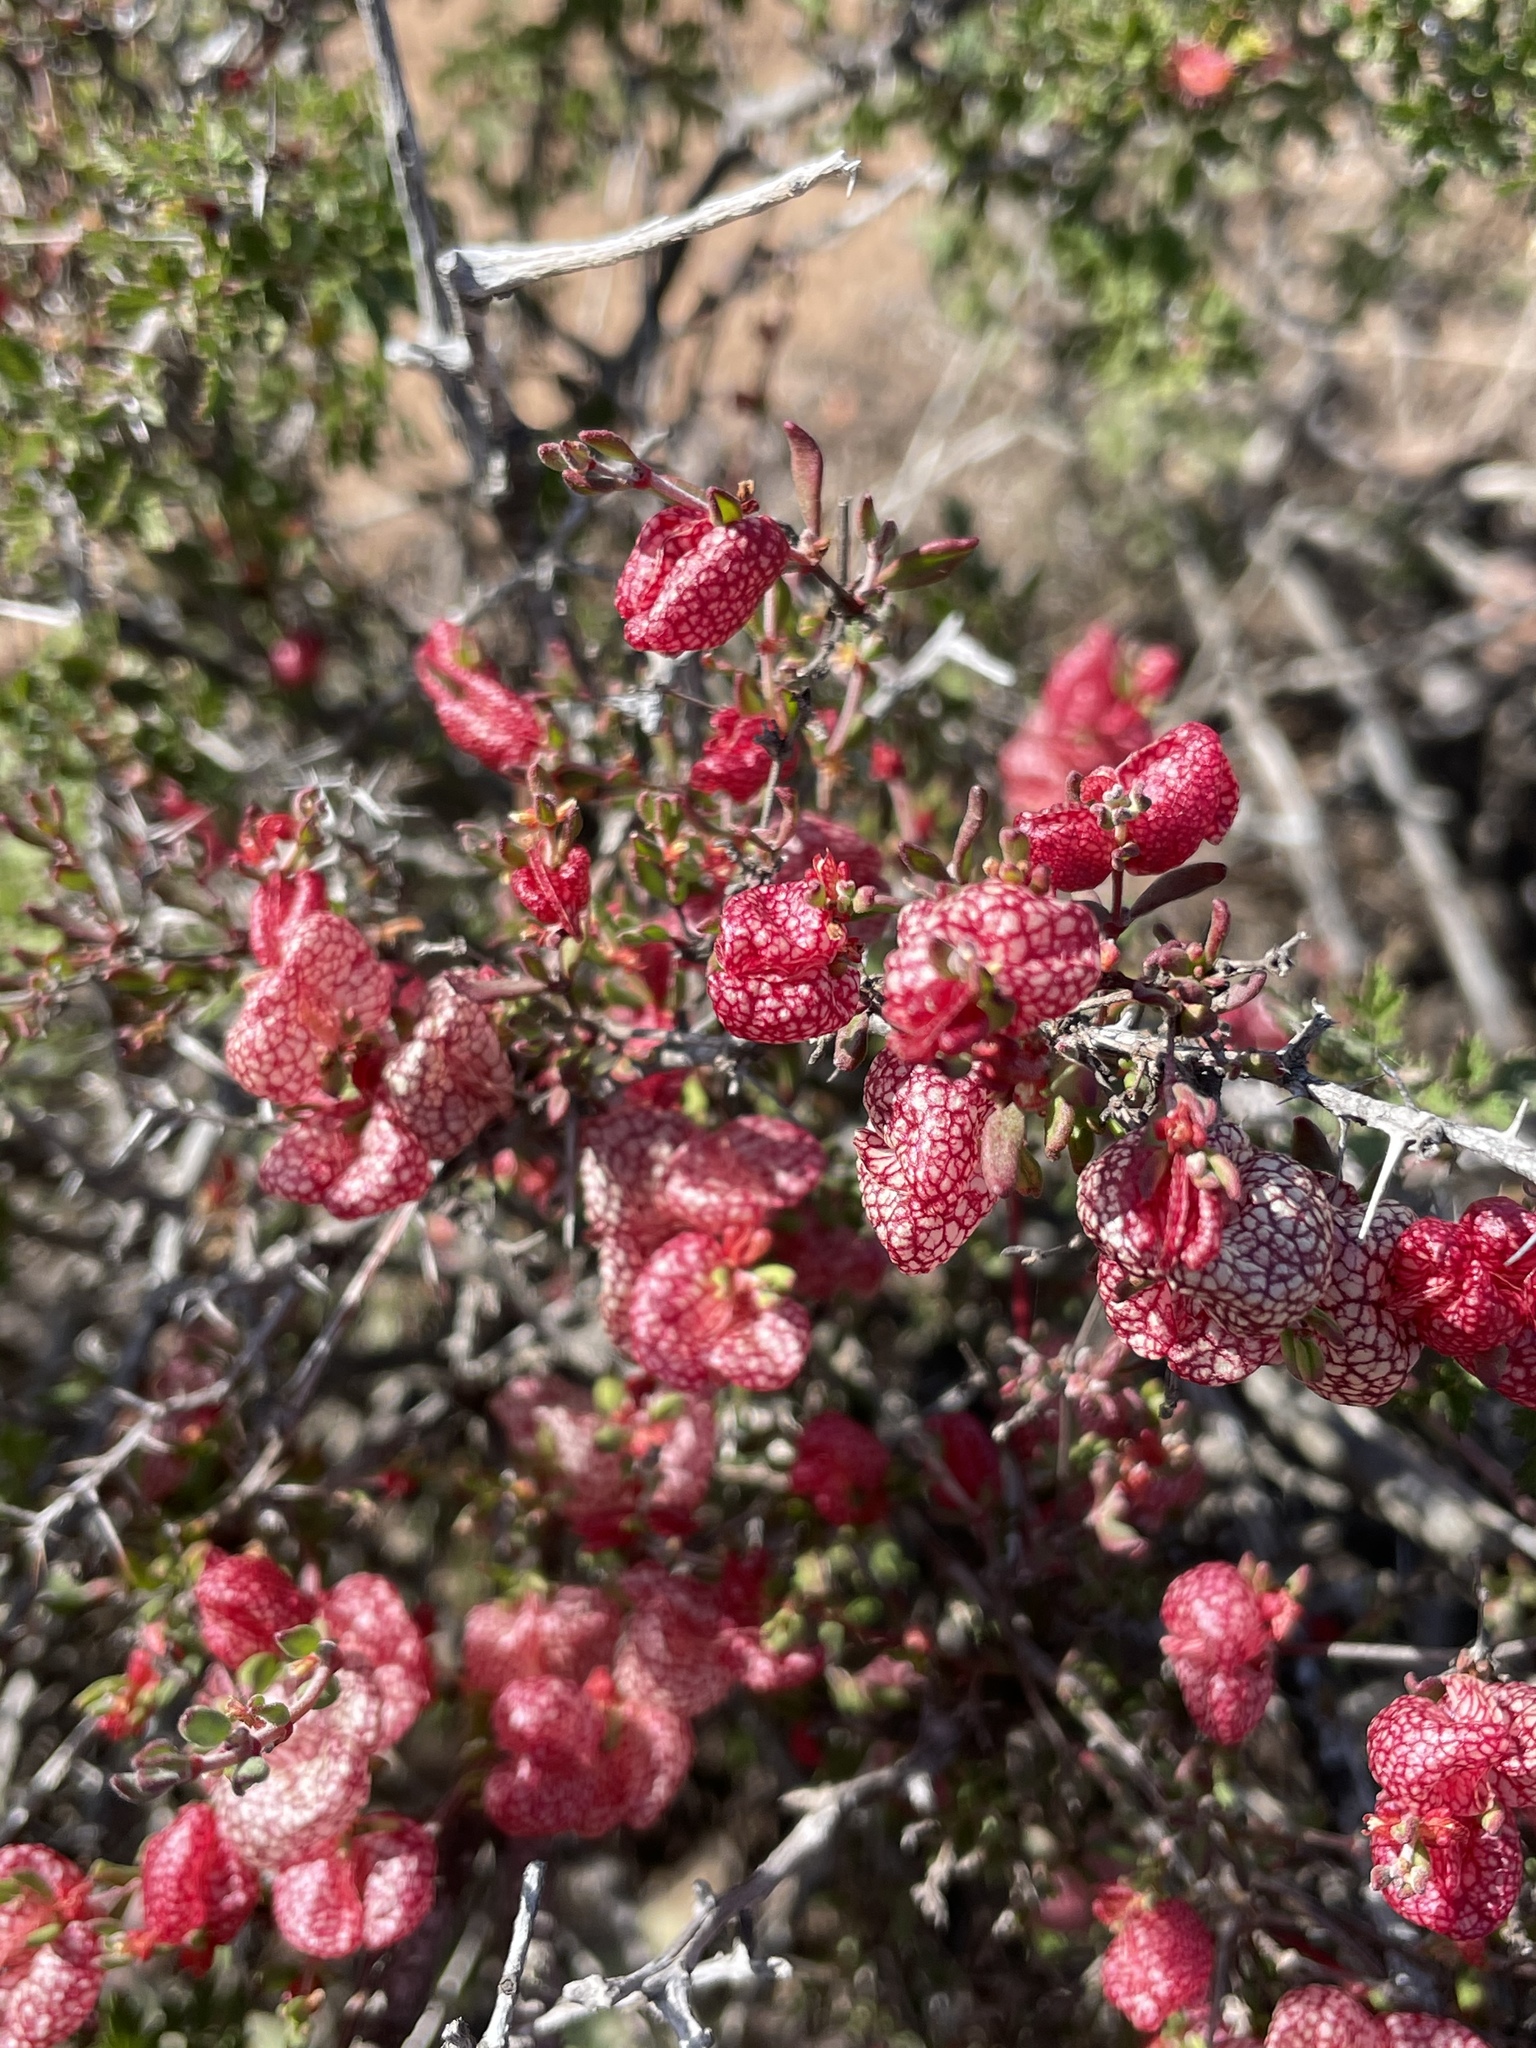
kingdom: Plantae
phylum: Tracheophyta
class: Magnoliopsida
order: Caryophyllales
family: Polygonaceae
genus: Harfordia
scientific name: Harfordia macroptera
